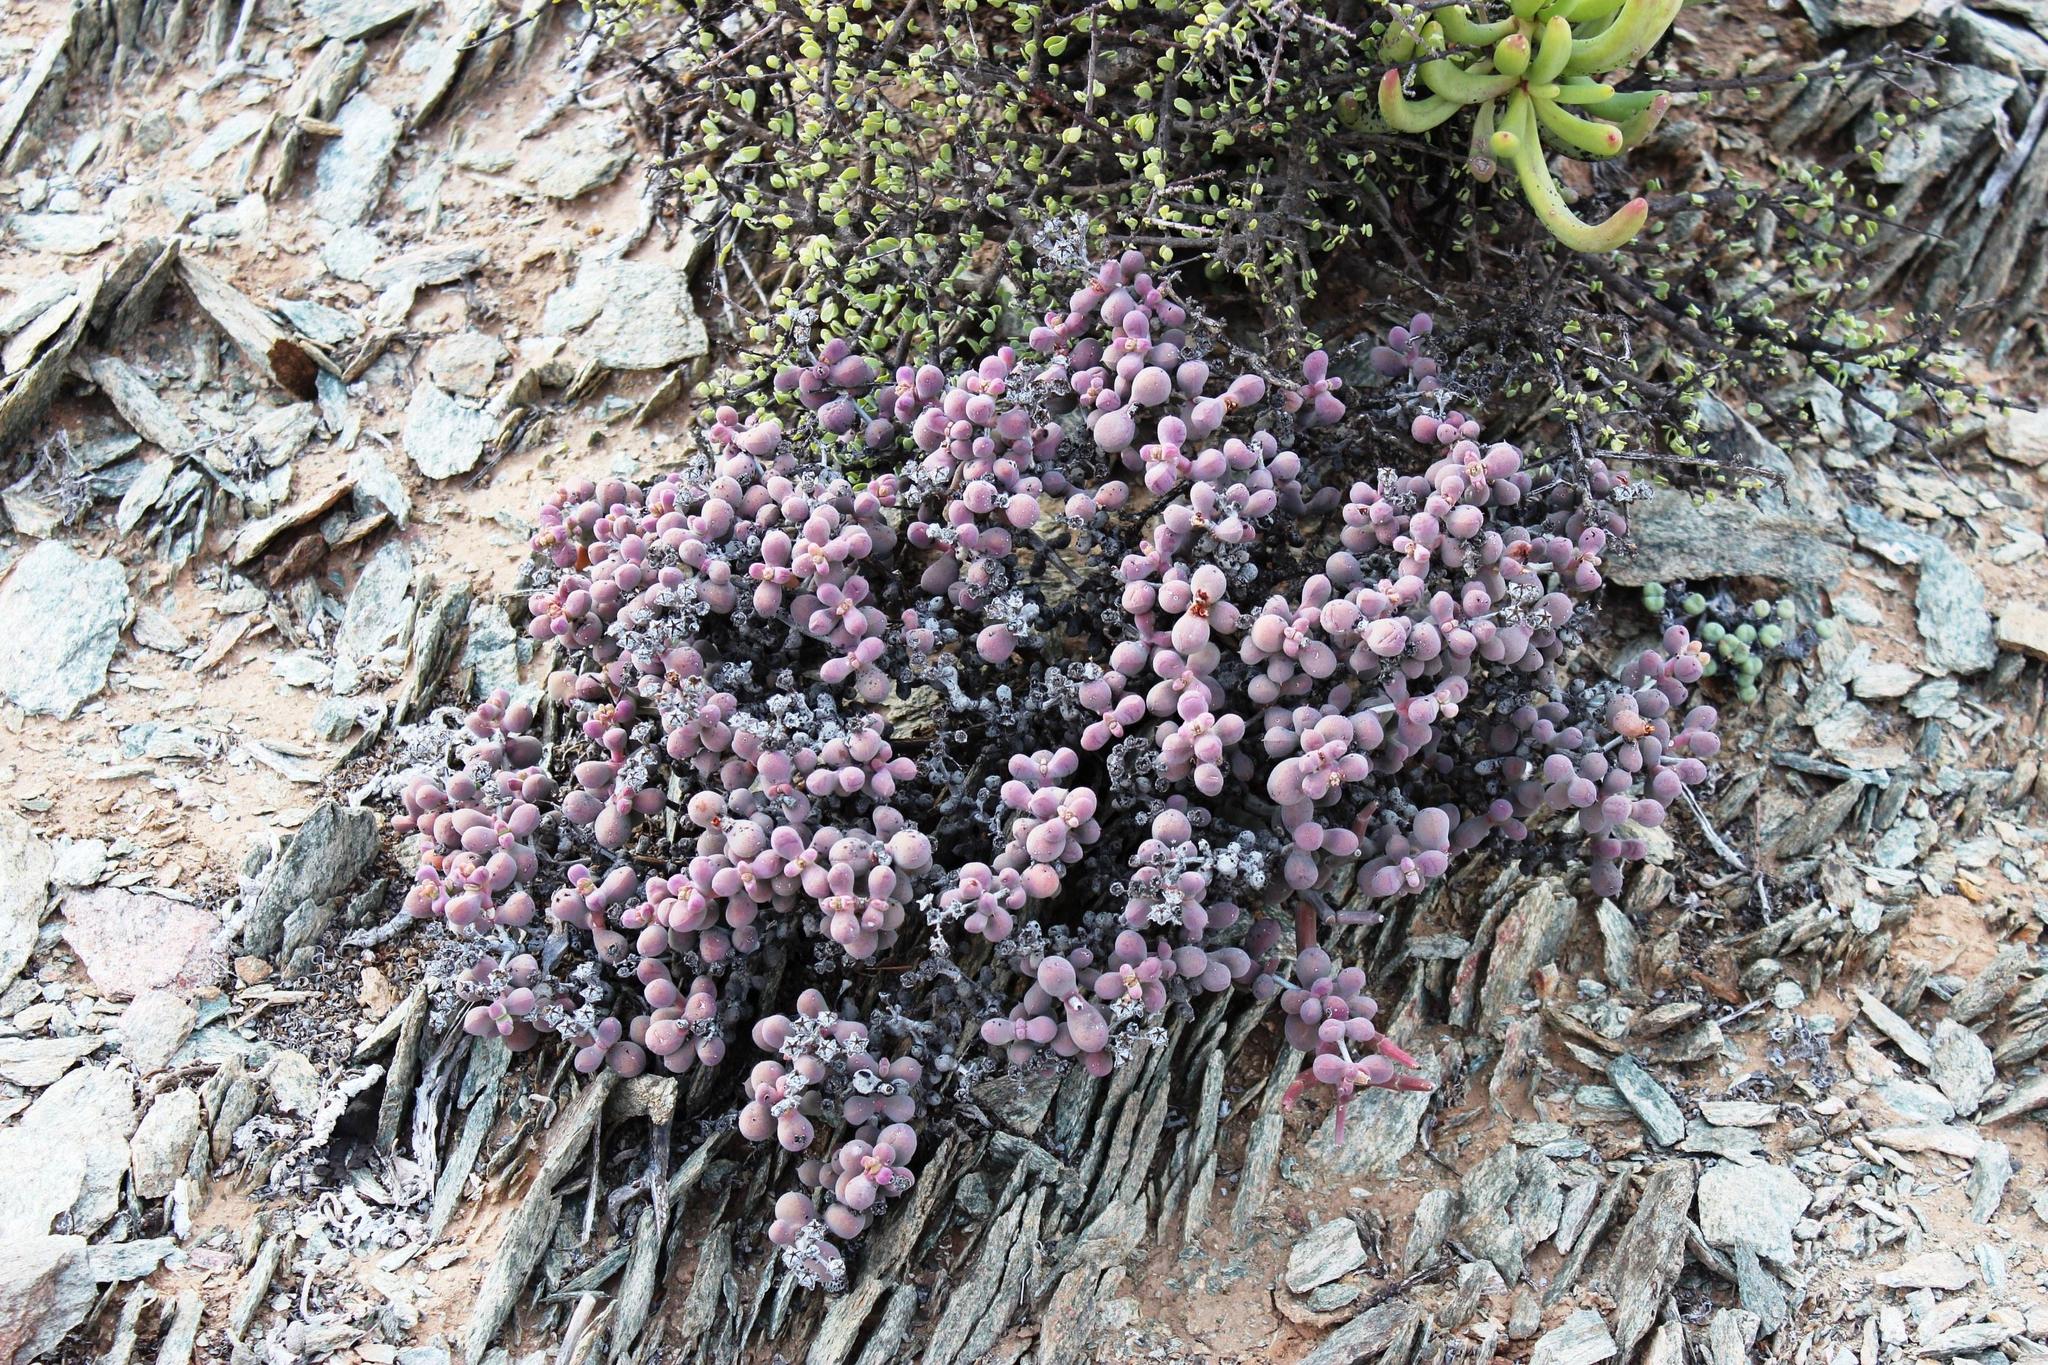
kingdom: Plantae
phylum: Tracheophyta
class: Magnoliopsida
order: Caryophyllales
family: Aizoaceae
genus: Eberlanzia
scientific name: Eberlanzia schneideriana
